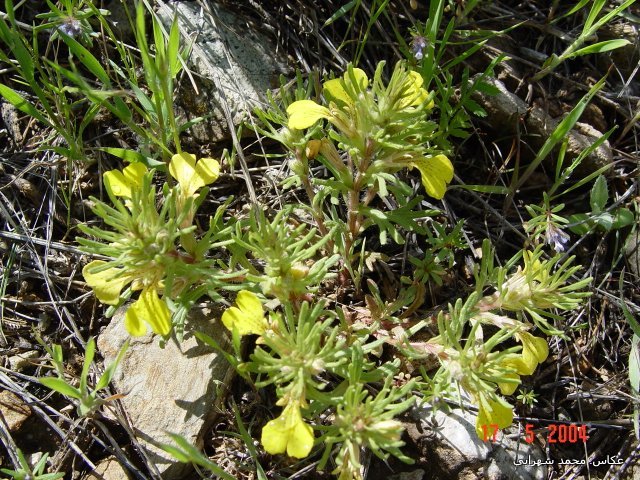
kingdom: Plantae
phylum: Tracheophyta
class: Magnoliopsida
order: Lamiales
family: Lamiaceae
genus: Ajuga
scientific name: Ajuga chamaepitys
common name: Ground-pine
